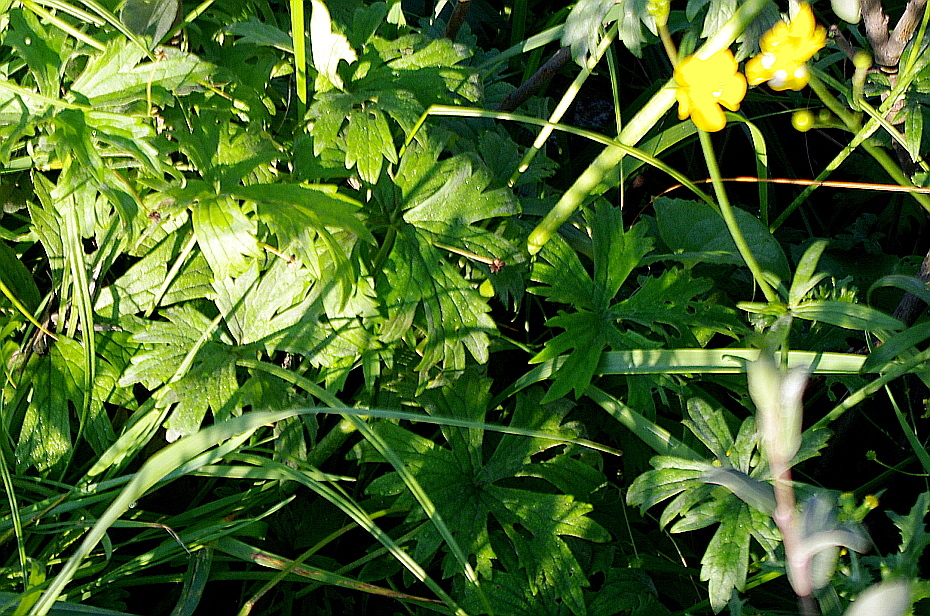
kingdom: Plantae
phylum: Tracheophyta
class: Magnoliopsida
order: Ranunculales
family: Ranunculaceae
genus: Ranunculus
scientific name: Ranunculus acris
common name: Meadow buttercup
